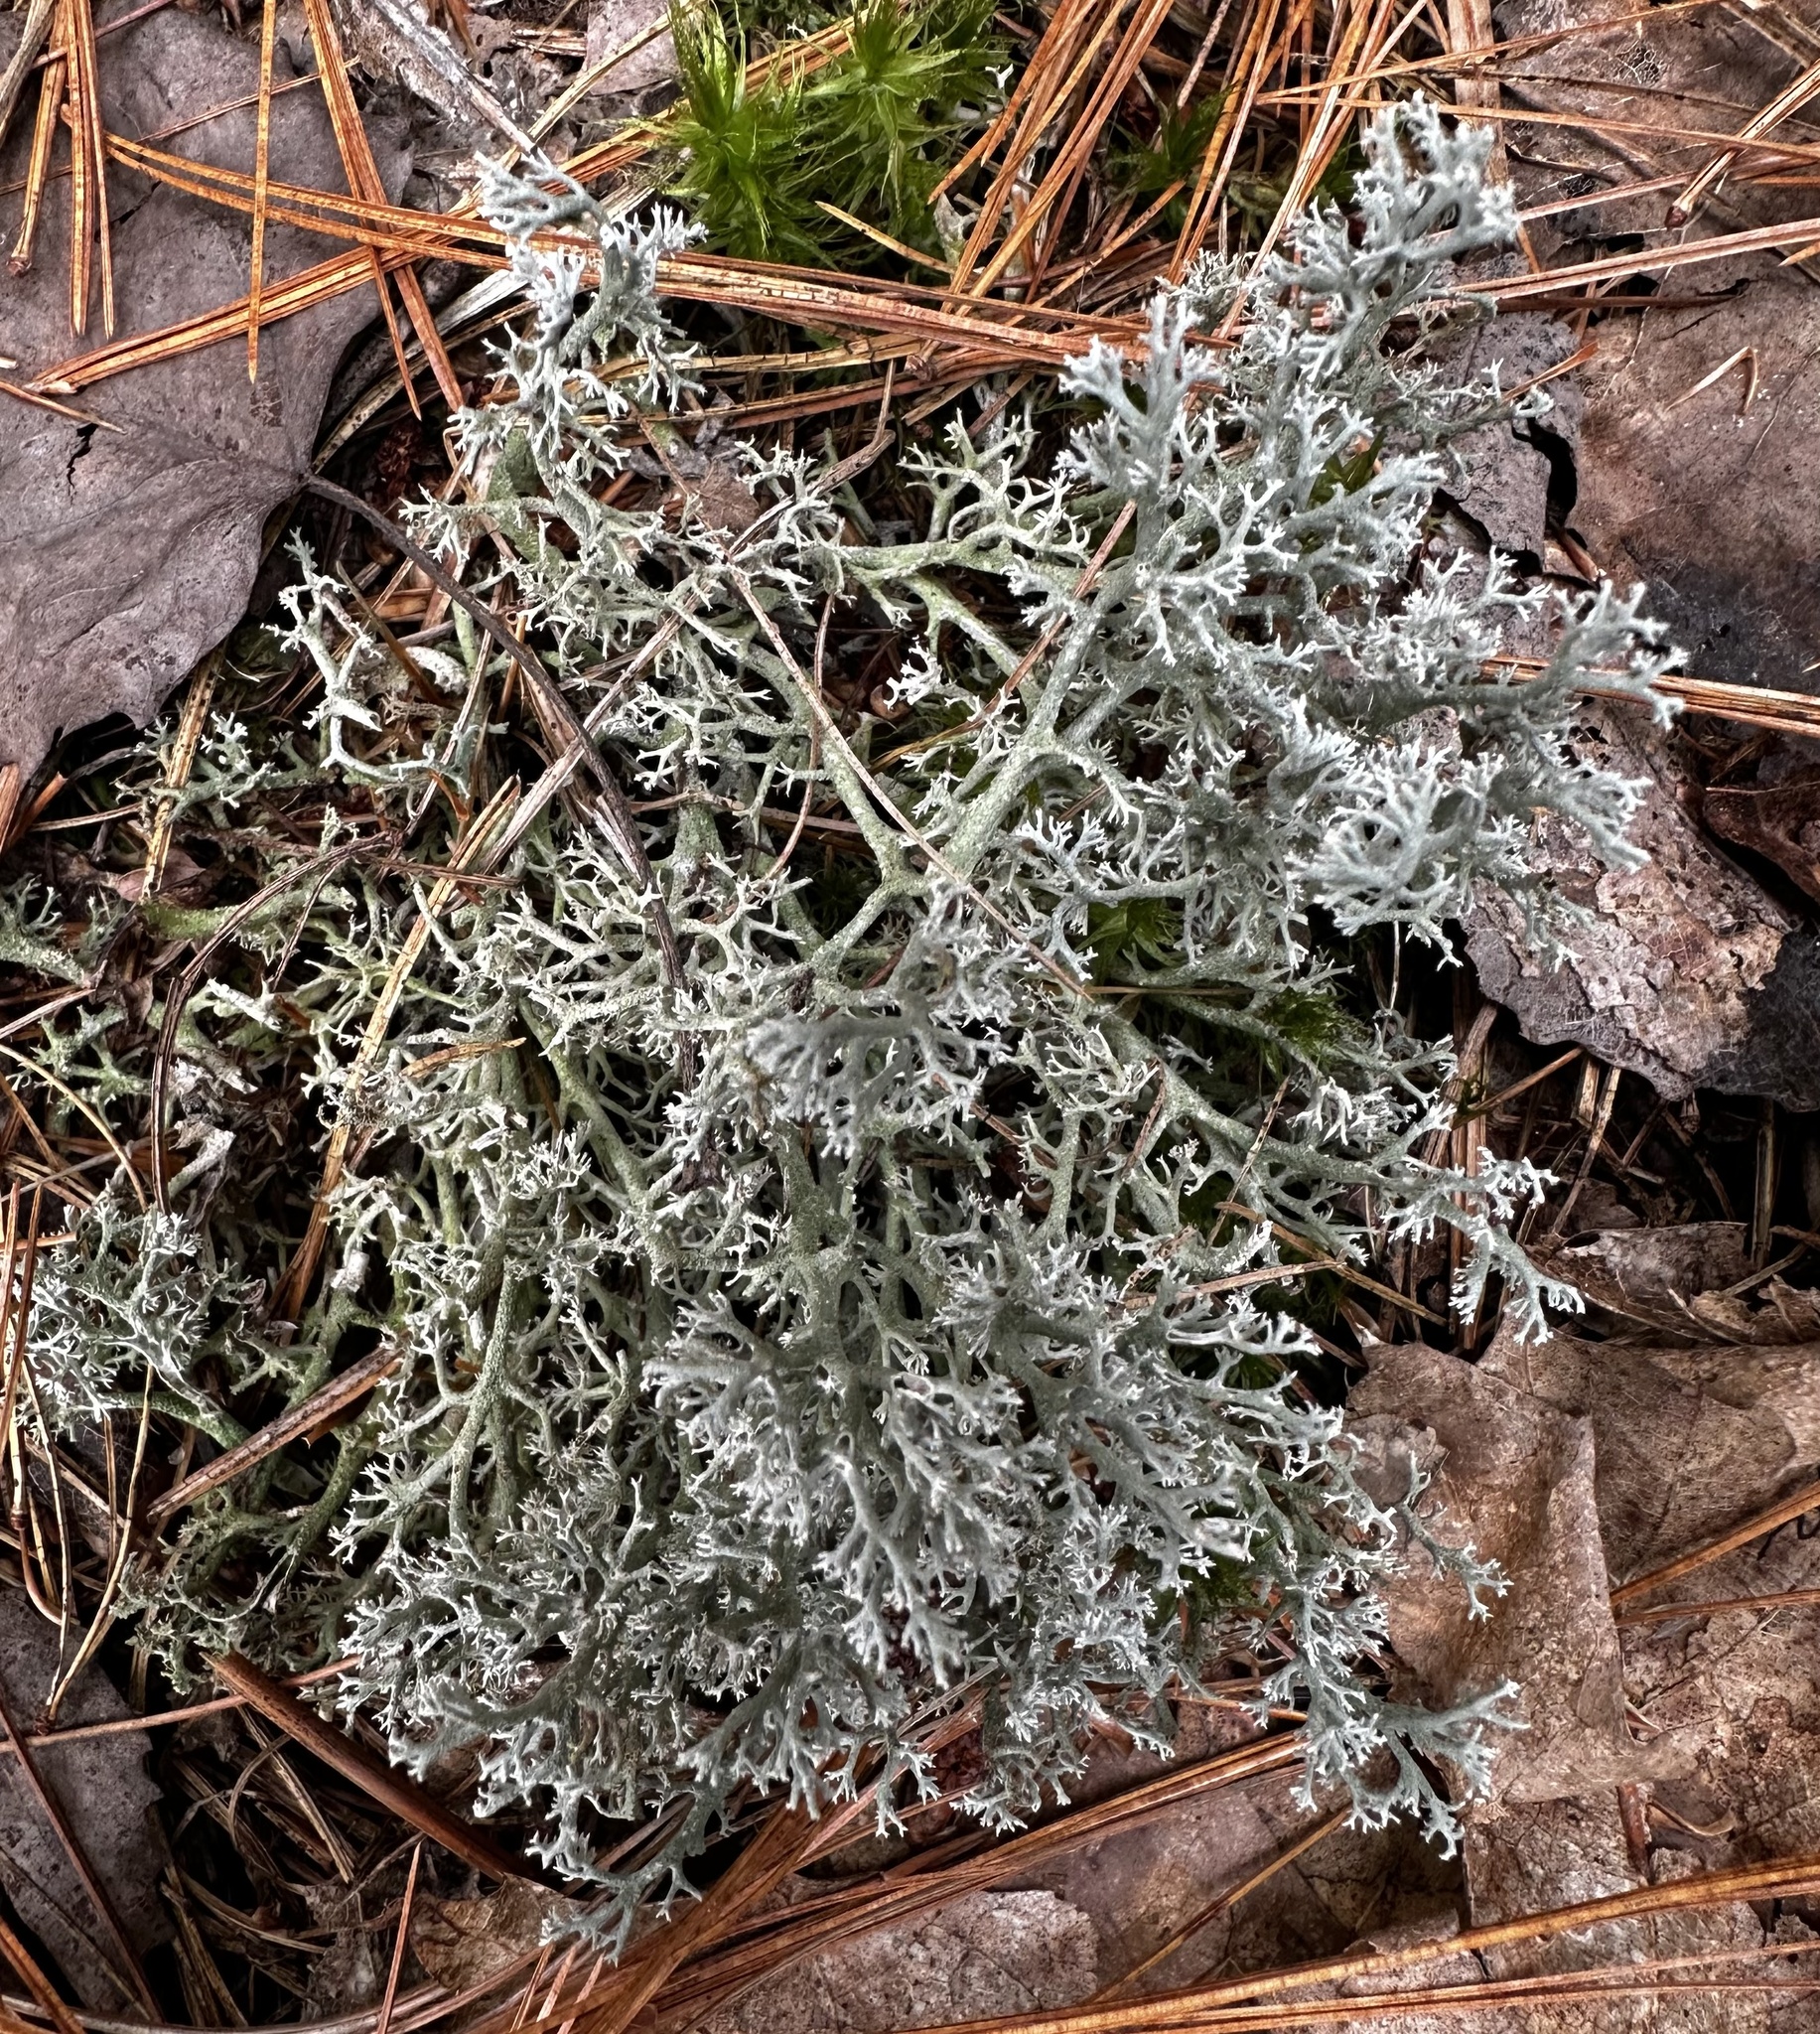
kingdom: Fungi
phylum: Ascomycota
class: Lecanoromycetes
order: Lecanorales
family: Cladoniaceae
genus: Cladonia
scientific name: Cladonia rangiferina
